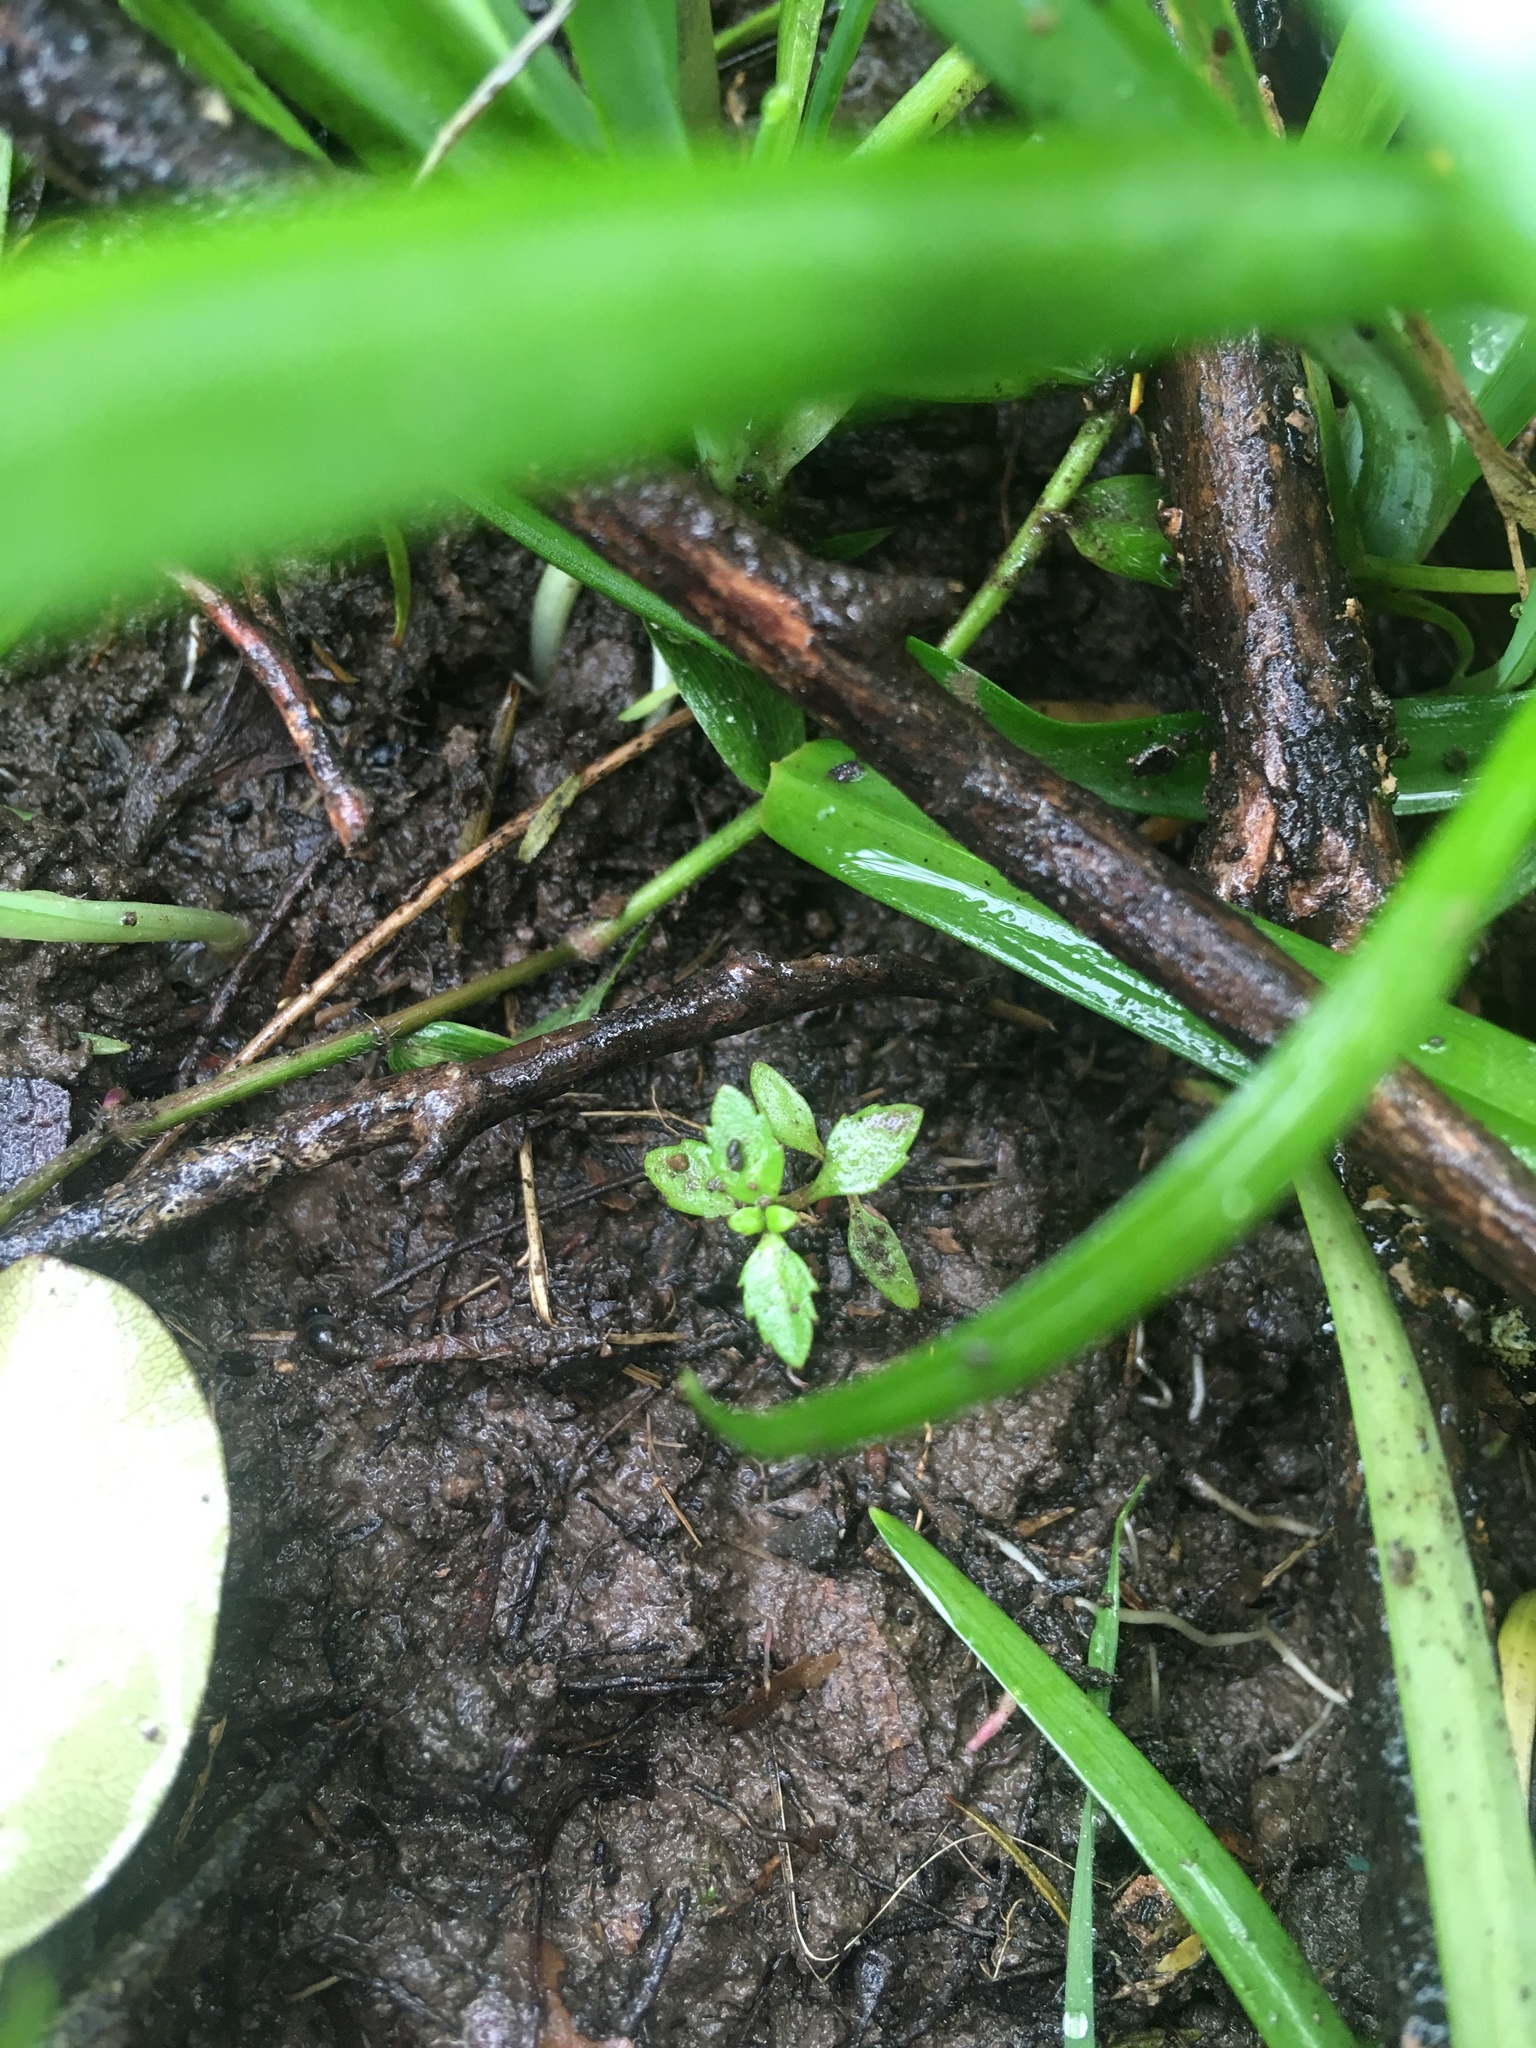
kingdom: Plantae
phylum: Tracheophyta
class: Magnoliopsida
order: Saxifragales
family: Haloragaceae
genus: Haloragis
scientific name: Haloragis erecta
